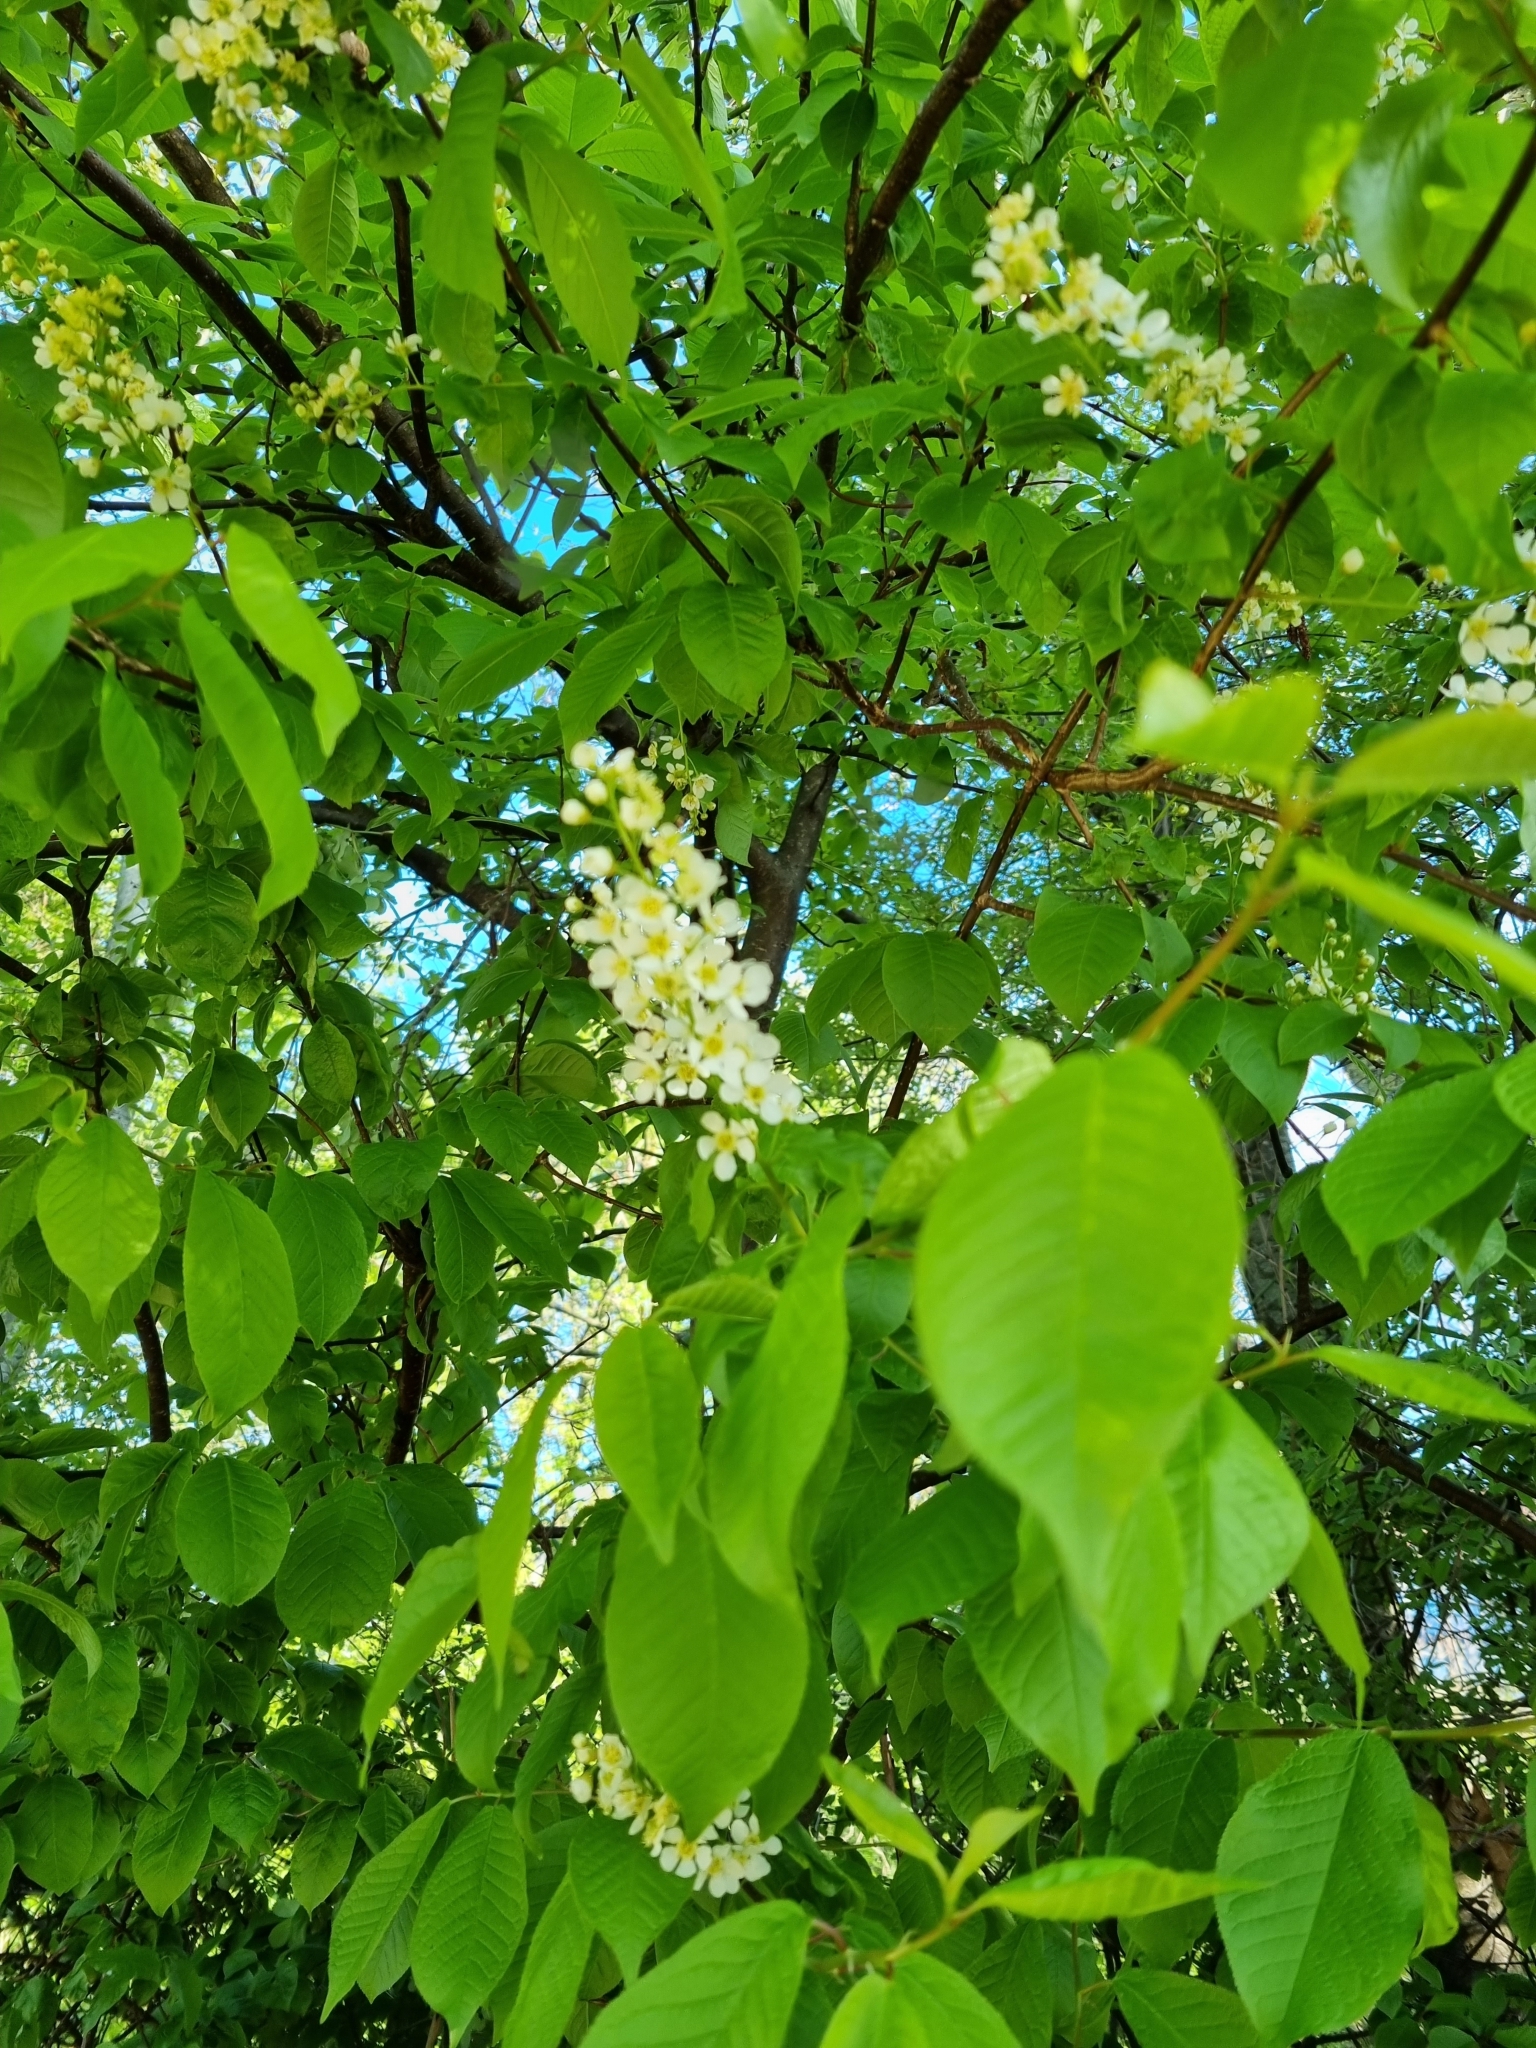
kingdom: Plantae
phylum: Tracheophyta
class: Magnoliopsida
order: Rosales
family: Rosaceae
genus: Prunus
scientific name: Prunus padus
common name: Bird cherry
